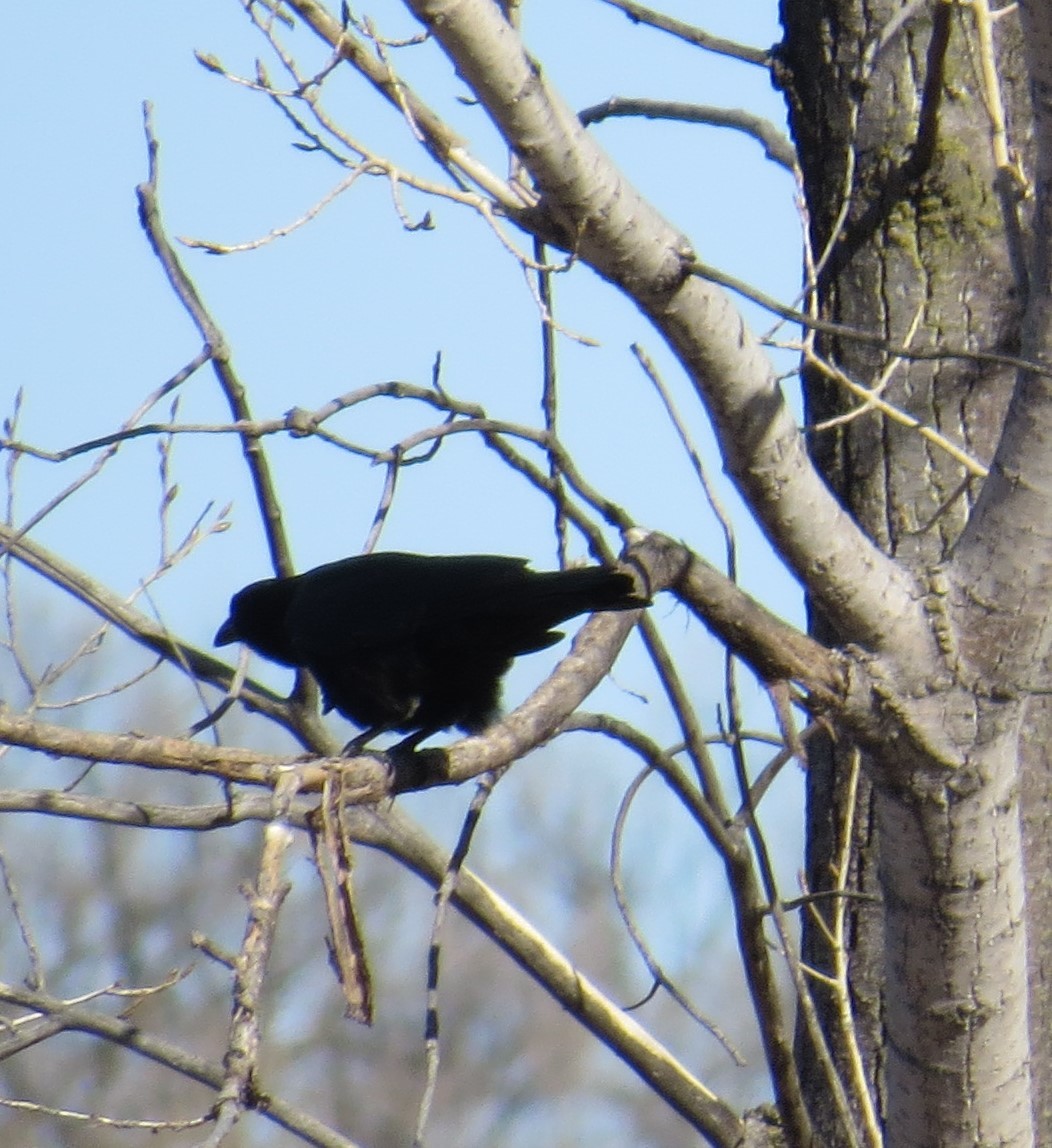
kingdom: Animalia
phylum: Chordata
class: Aves
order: Passeriformes
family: Corvidae
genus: Corvus
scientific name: Corvus brachyrhynchos
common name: American crow
